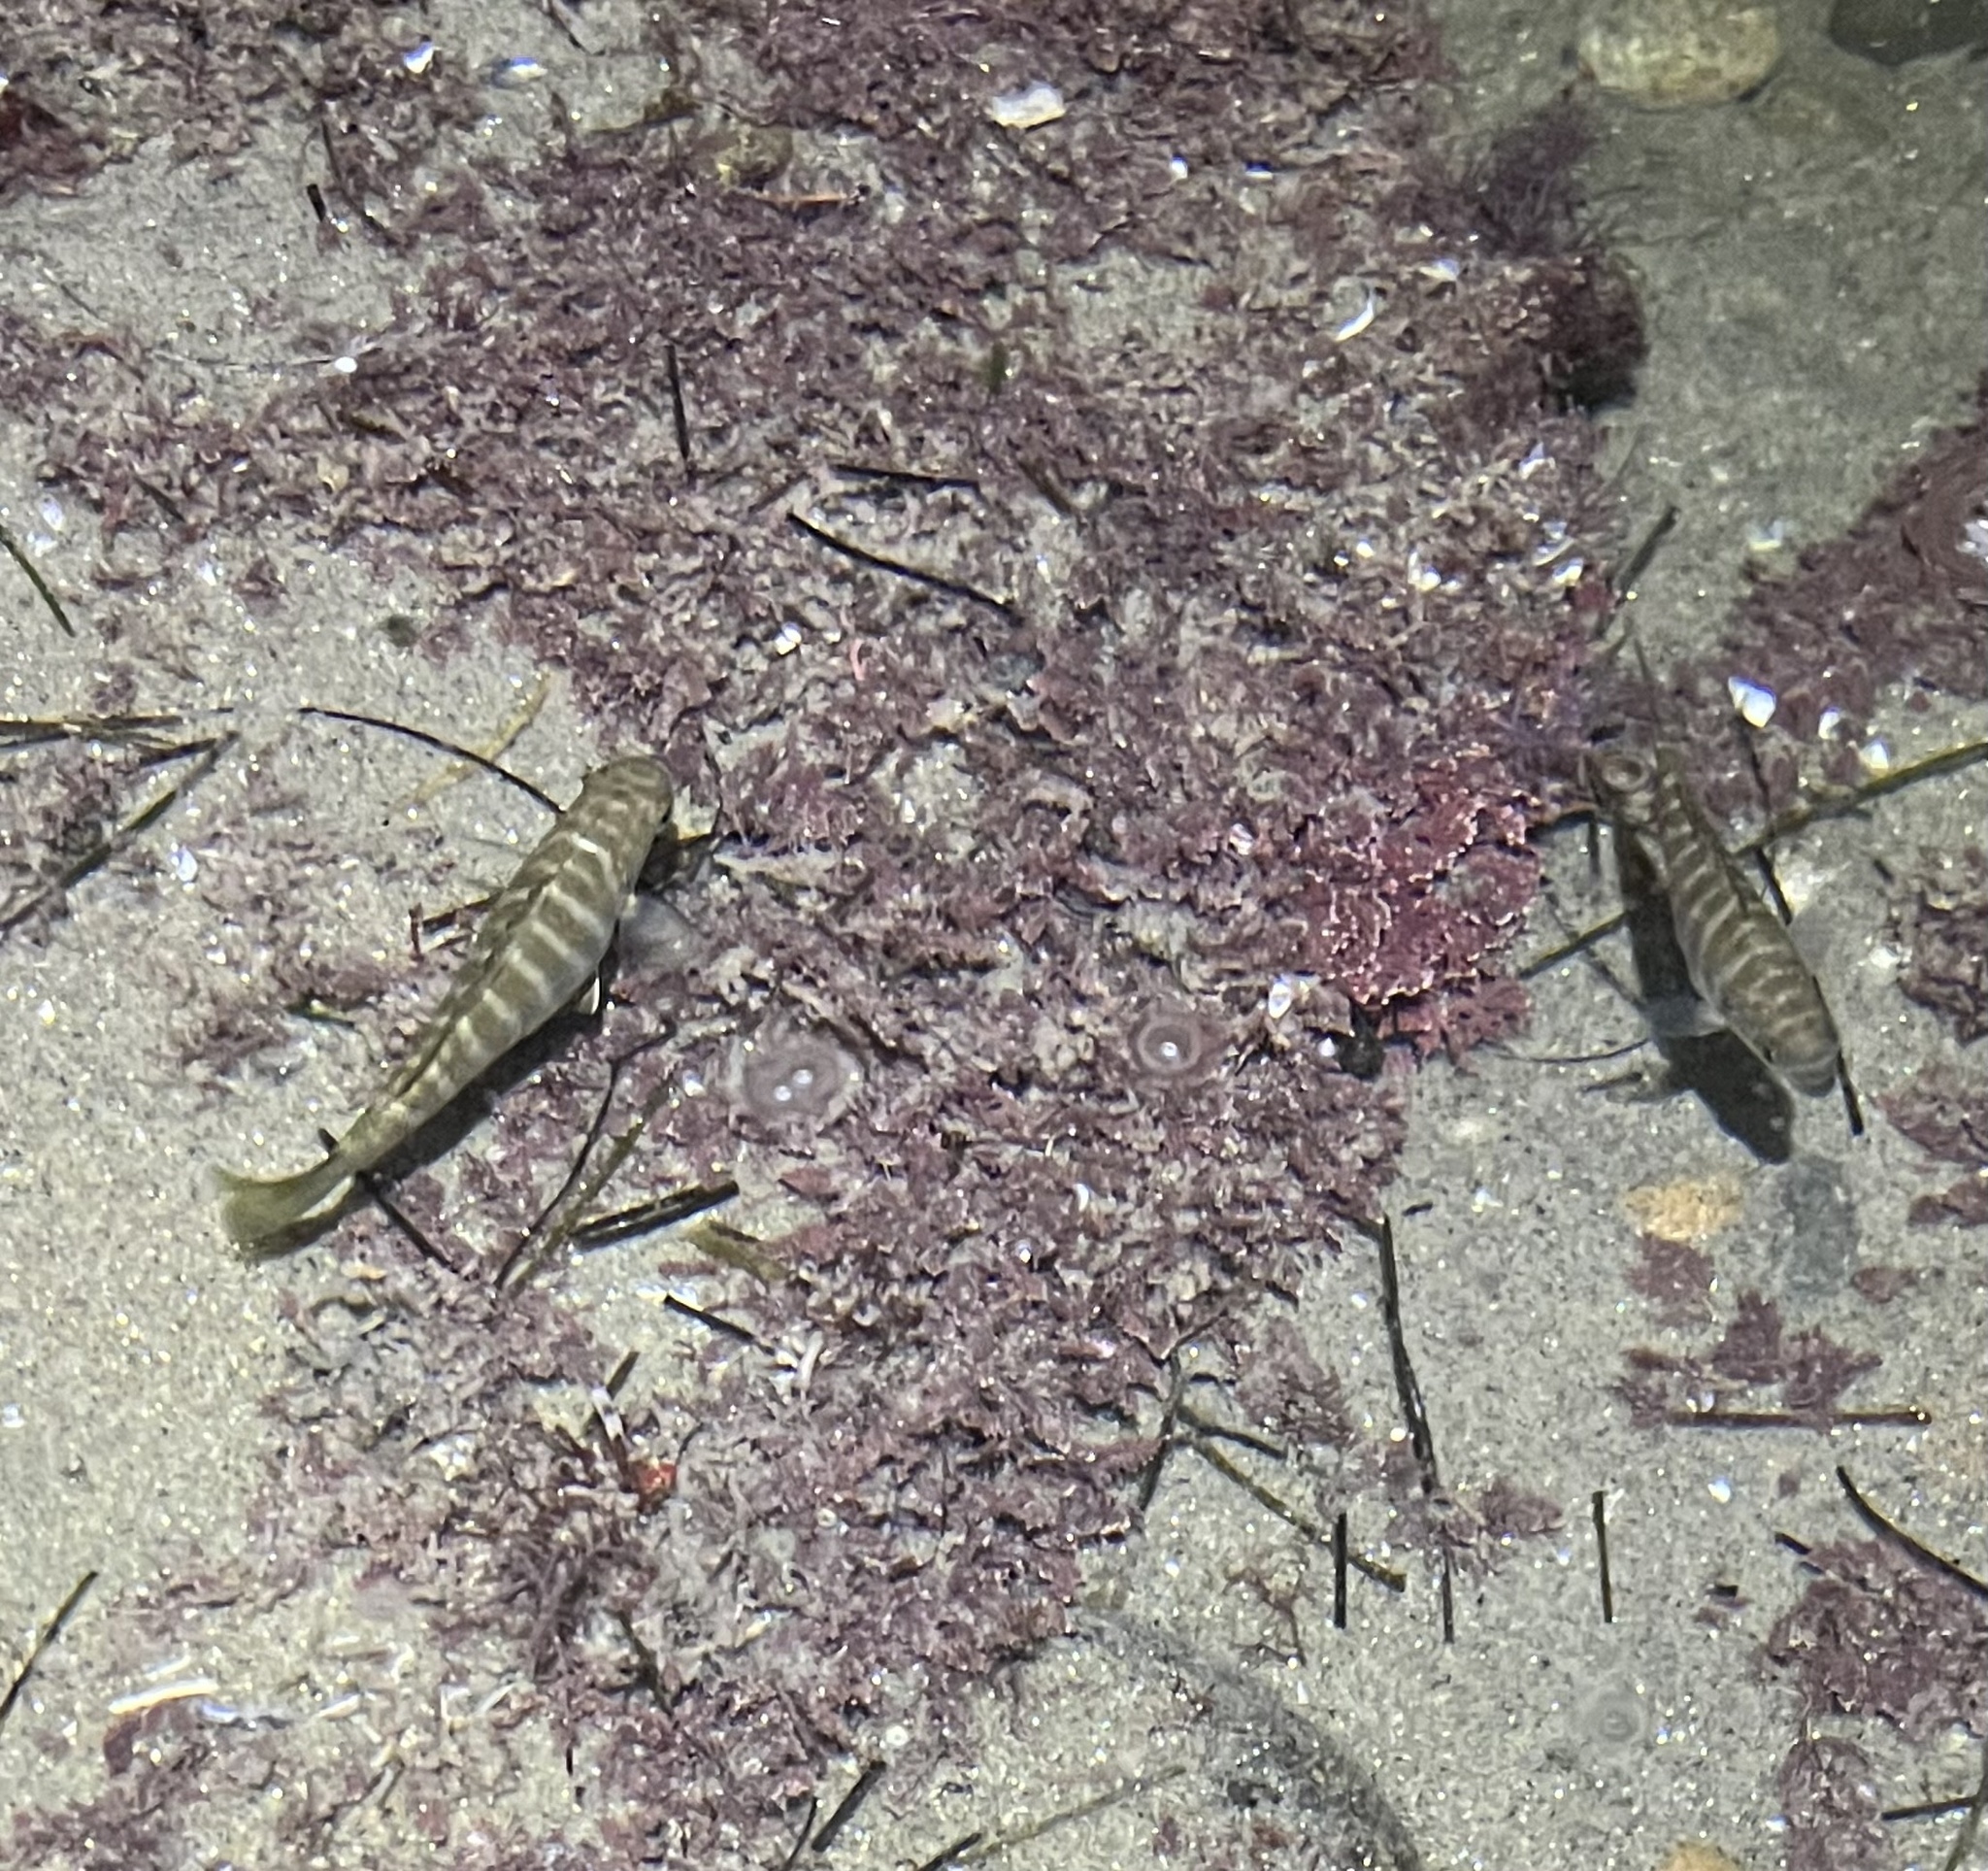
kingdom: Animalia
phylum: Chordata
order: Perciformes
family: Kyphosidae
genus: Kyphosus
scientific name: Kyphosus azureus
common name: Perch
